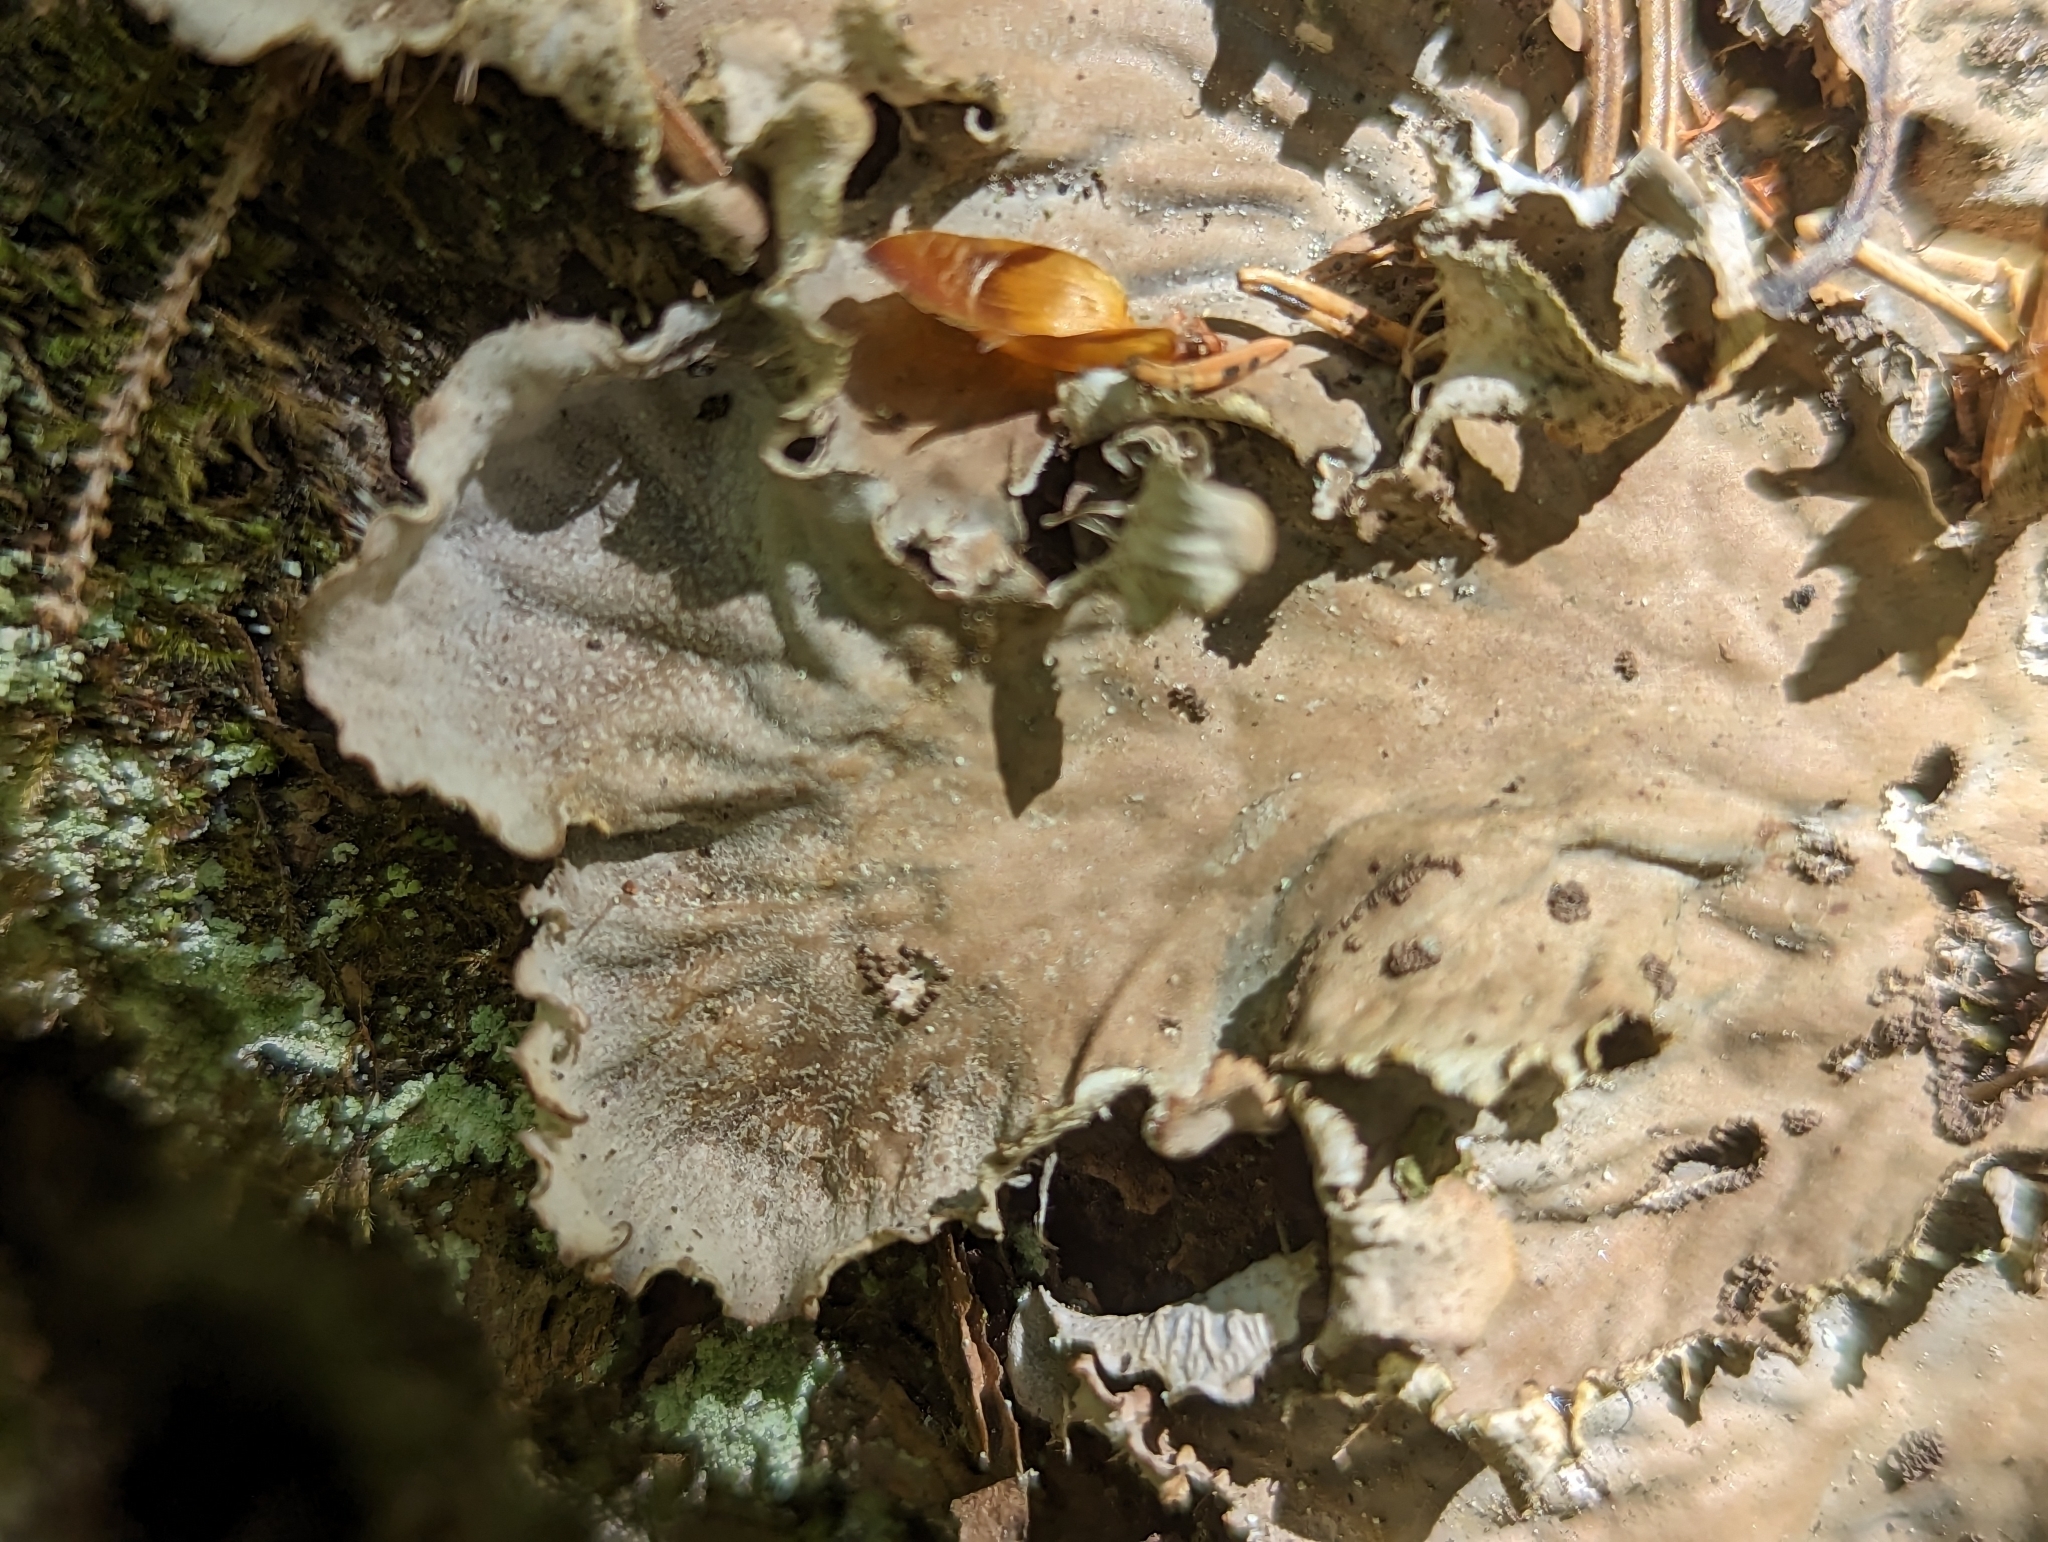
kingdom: Fungi
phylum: Ascomycota
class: Lecanoromycetes
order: Peltigerales
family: Peltigeraceae
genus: Peltigera
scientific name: Peltigera praetextata
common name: Scaly dog-lichen
